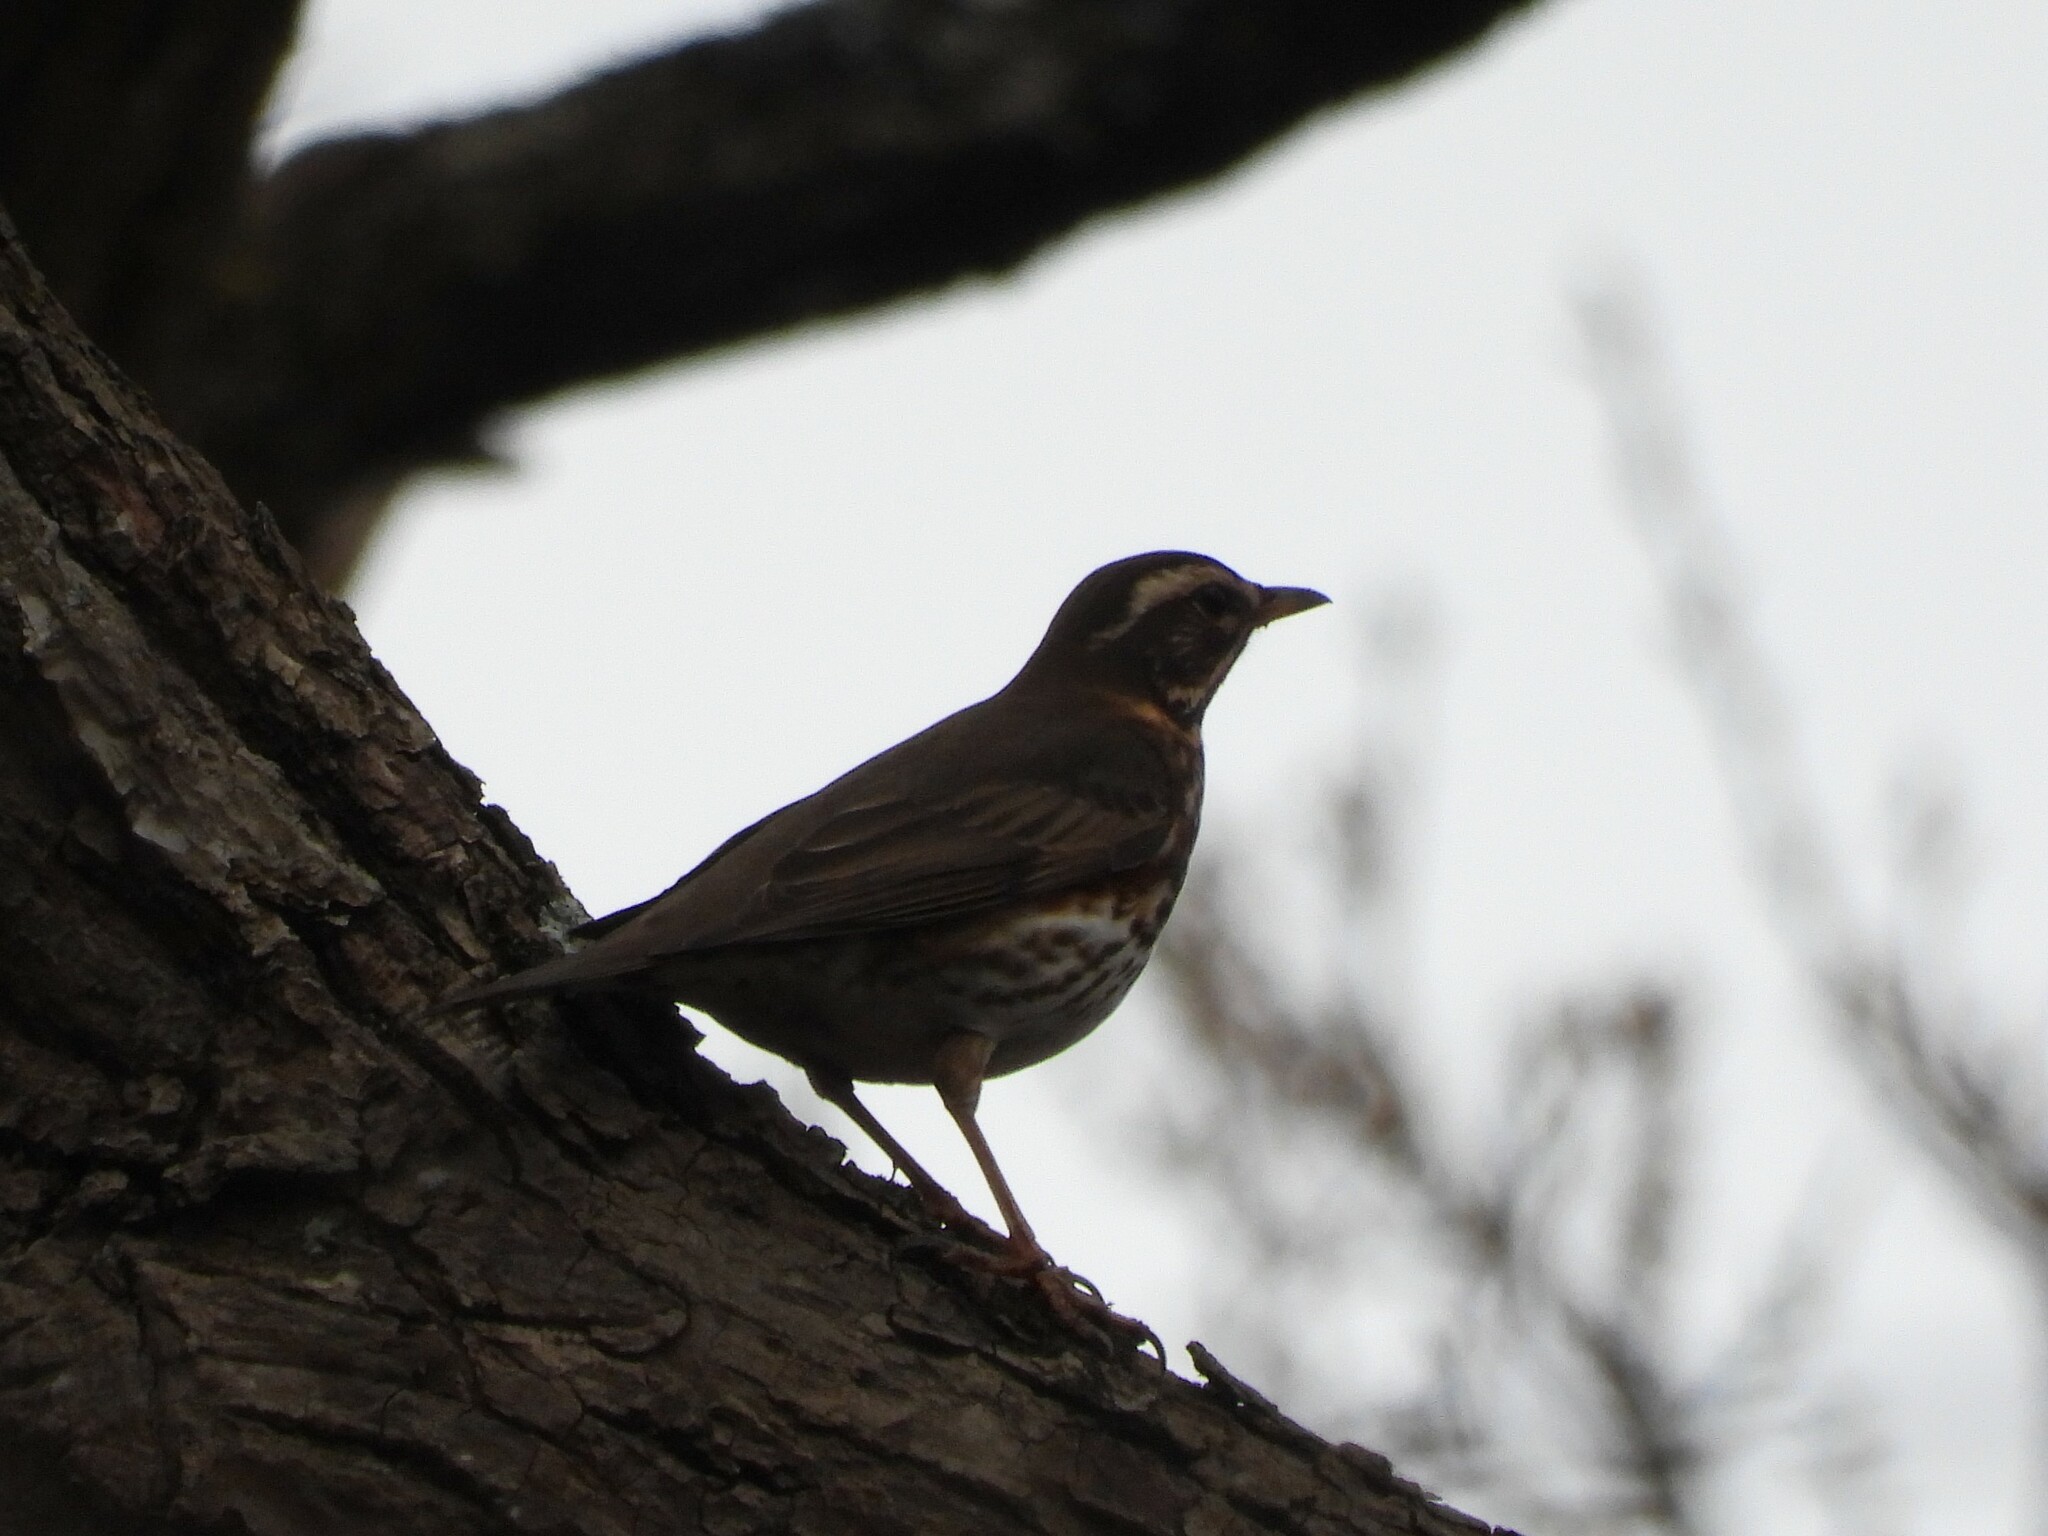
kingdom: Animalia
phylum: Chordata
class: Aves
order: Passeriformes
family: Turdidae
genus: Turdus
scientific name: Turdus iliacus
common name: Redwing
